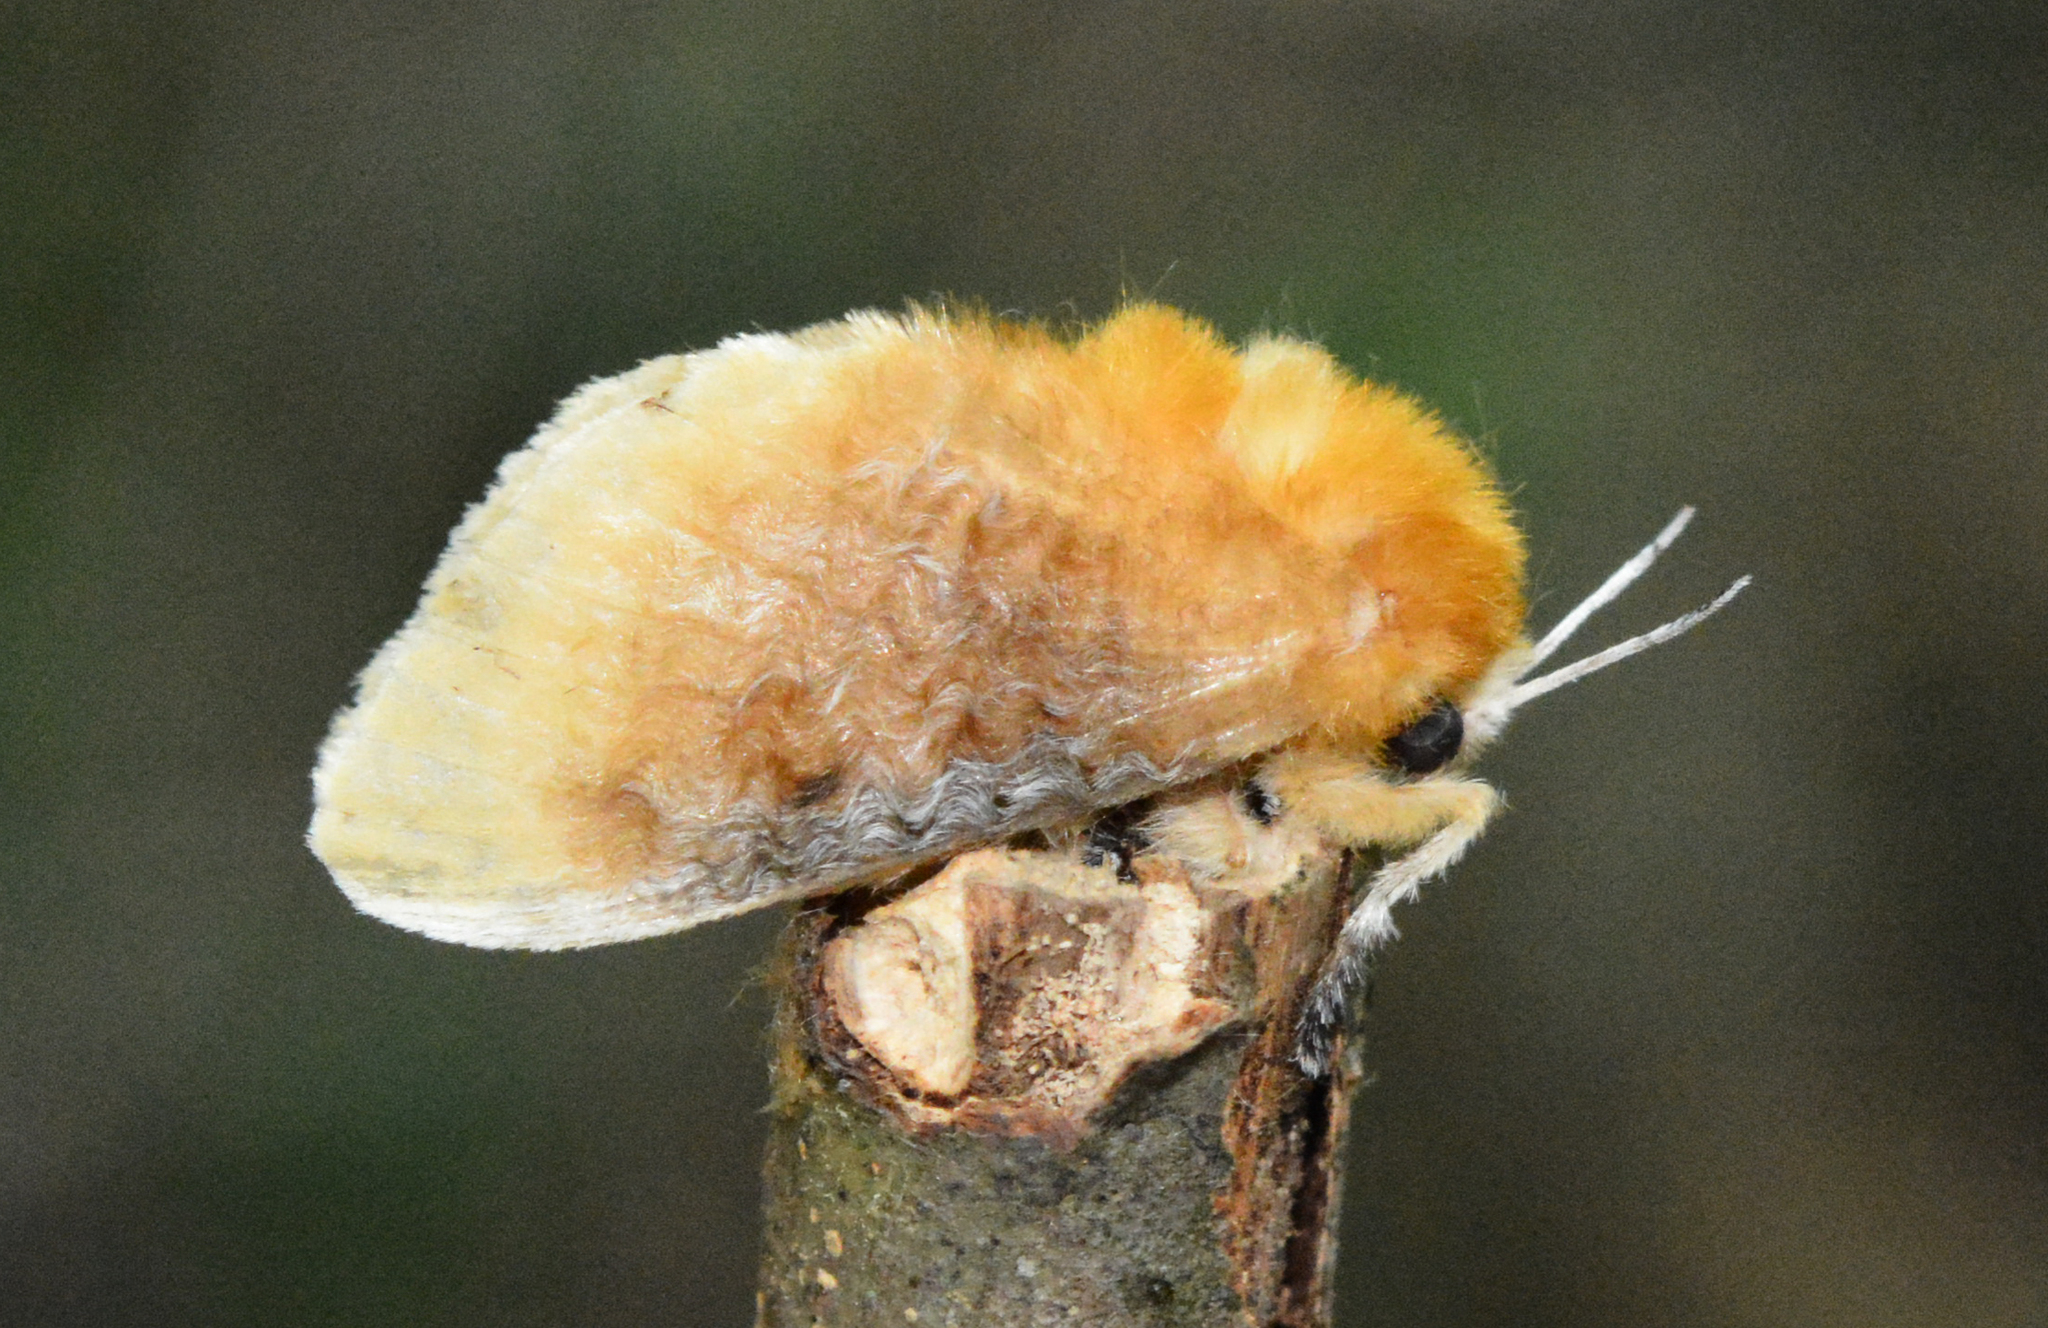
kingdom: Animalia
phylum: Arthropoda
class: Insecta
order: Lepidoptera
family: Megalopygidae
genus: Megalopyge
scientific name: Megalopyge opercularis
